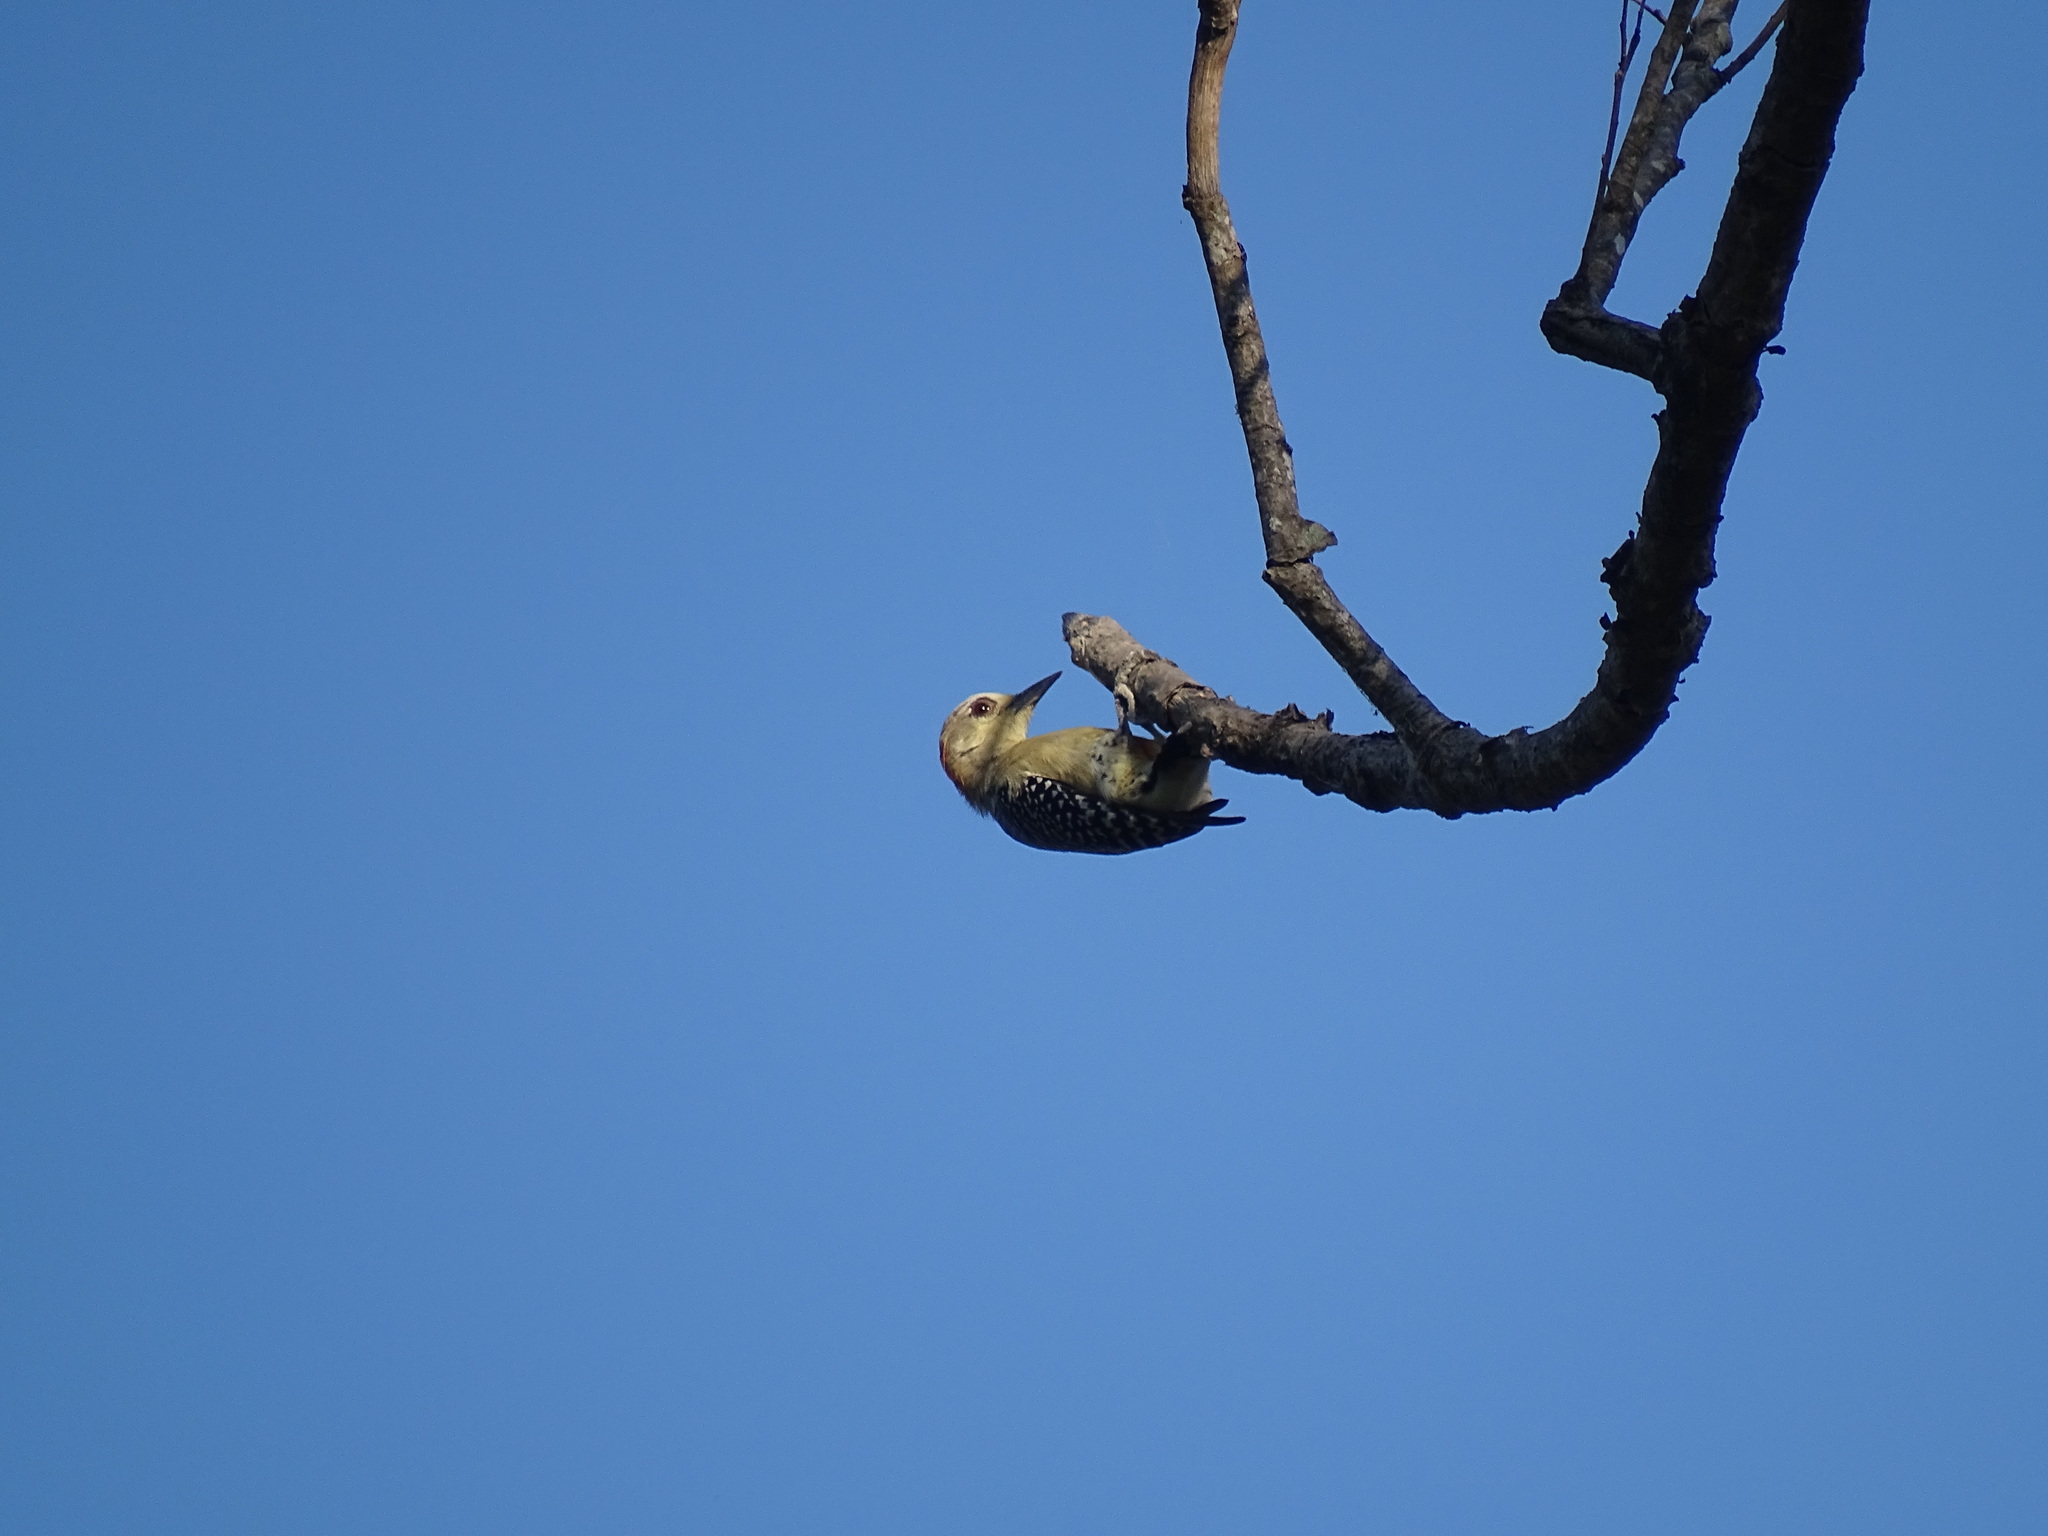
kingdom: Animalia
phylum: Chordata
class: Aves
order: Piciformes
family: Picidae
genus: Melanerpes
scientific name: Melanerpes rubricapillus
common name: Red-crowned woodpecker
